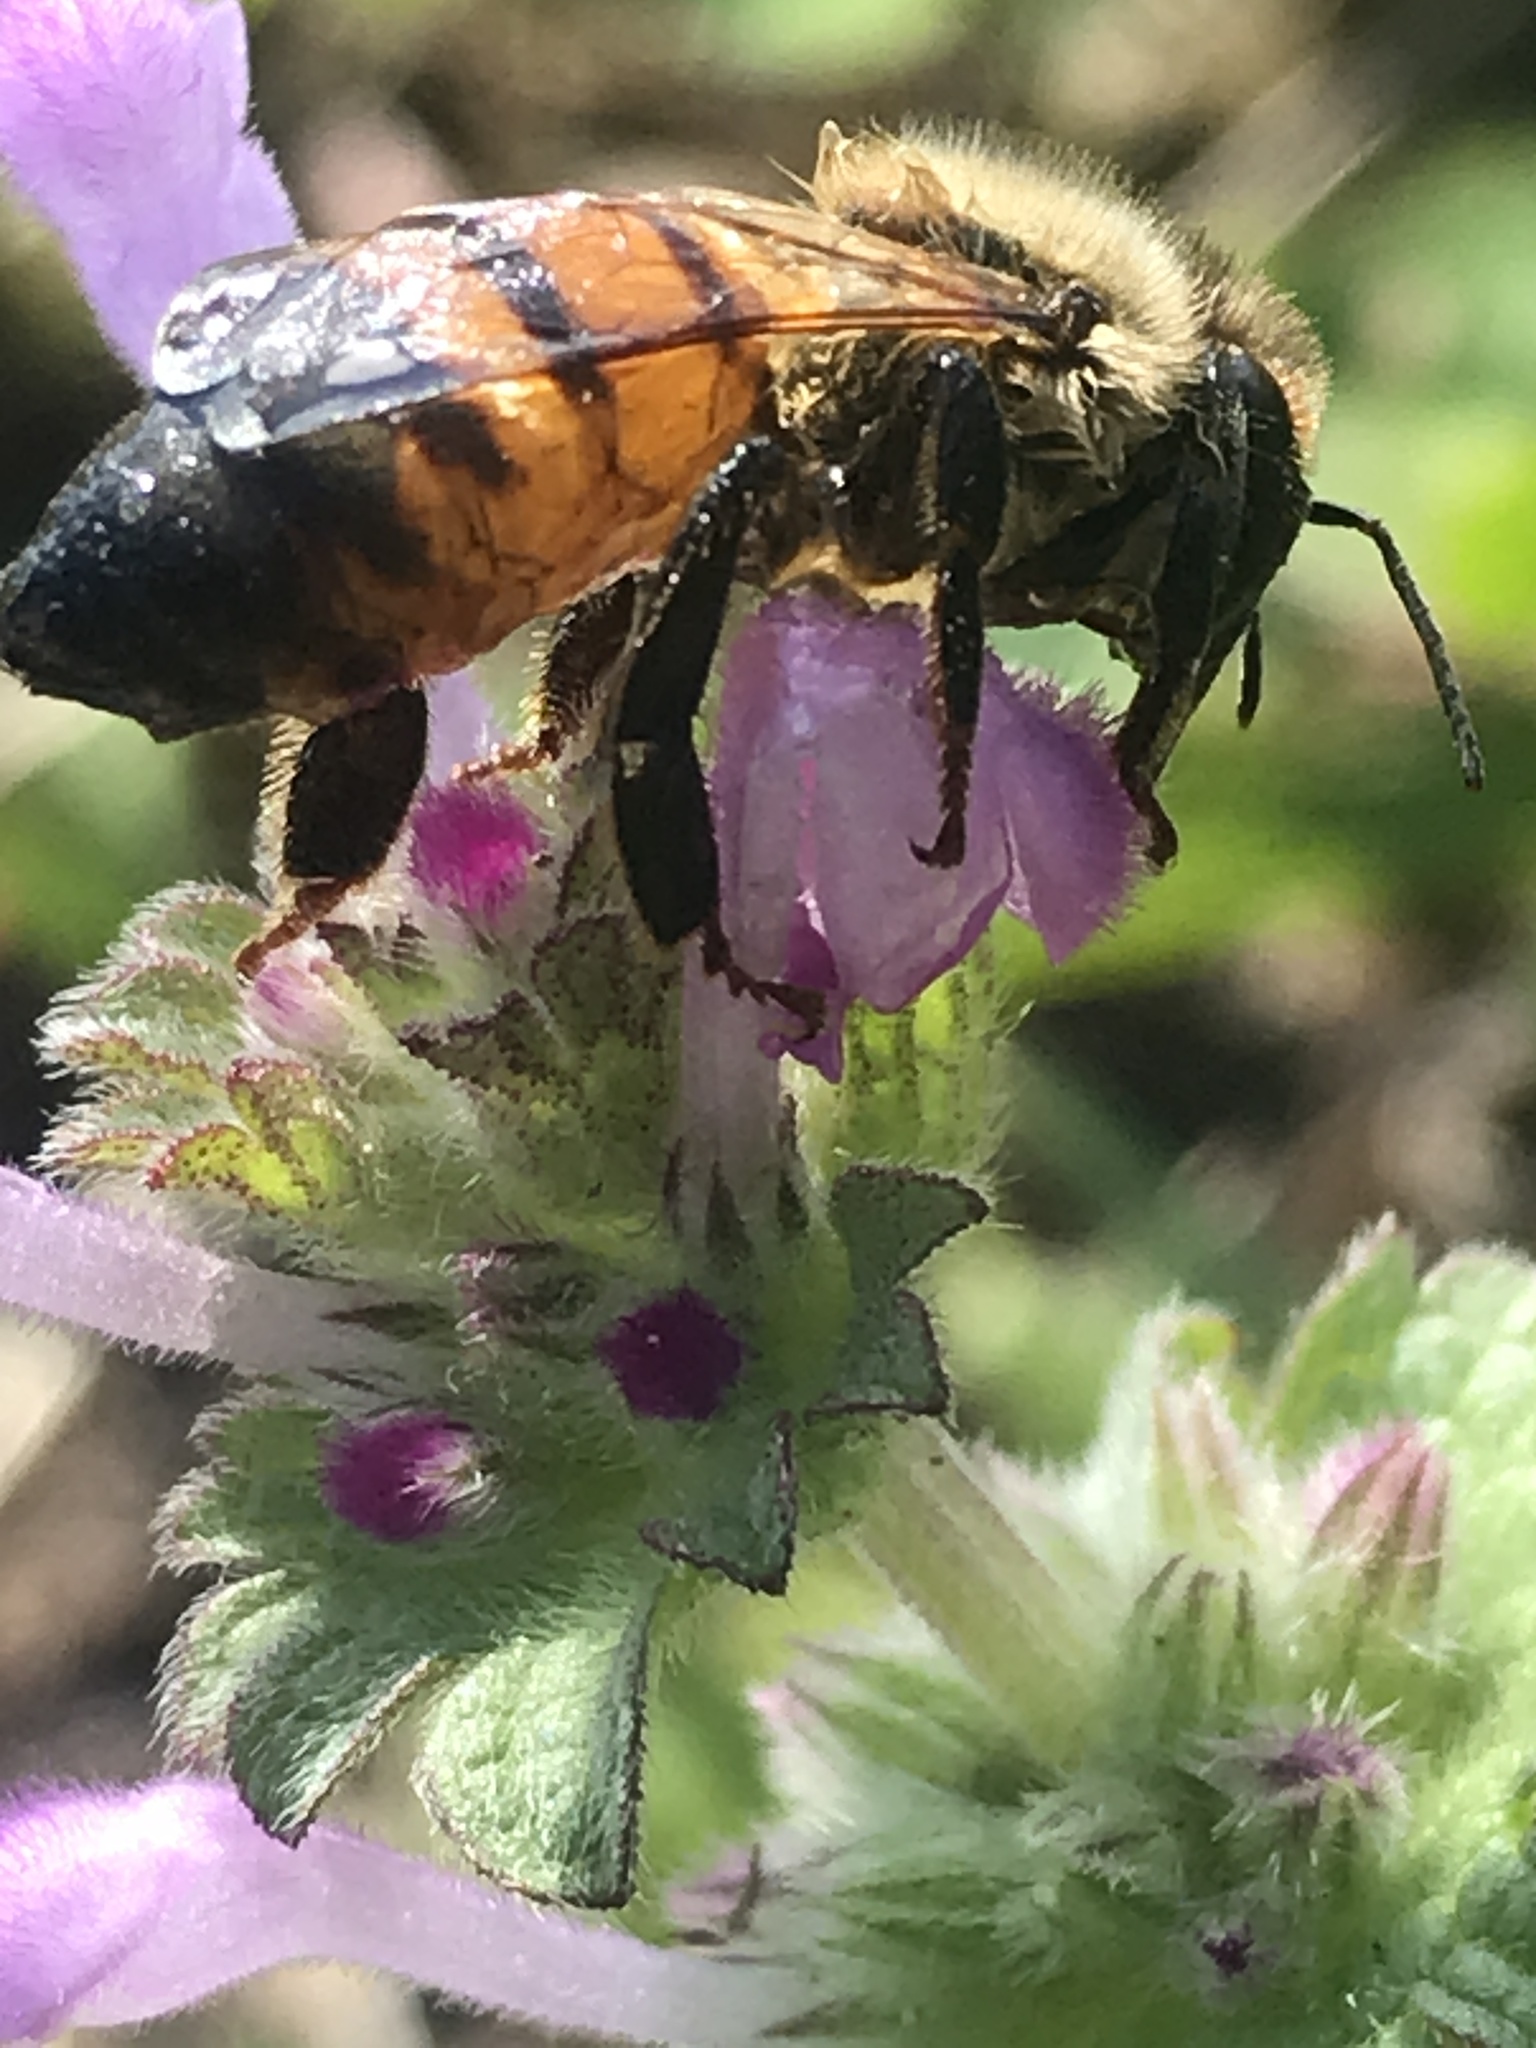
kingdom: Animalia
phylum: Arthropoda
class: Insecta
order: Hymenoptera
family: Apidae
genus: Apis
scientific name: Apis mellifera
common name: Honey bee
